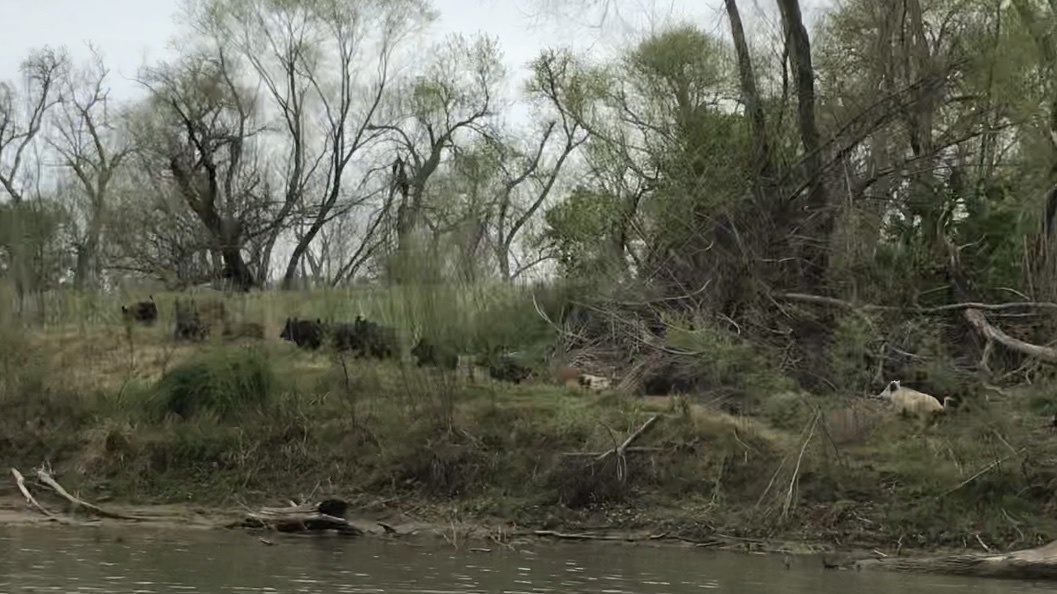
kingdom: Animalia
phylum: Chordata
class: Mammalia
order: Artiodactyla
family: Suidae
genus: Sus
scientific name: Sus scrofa
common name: Wild boar
